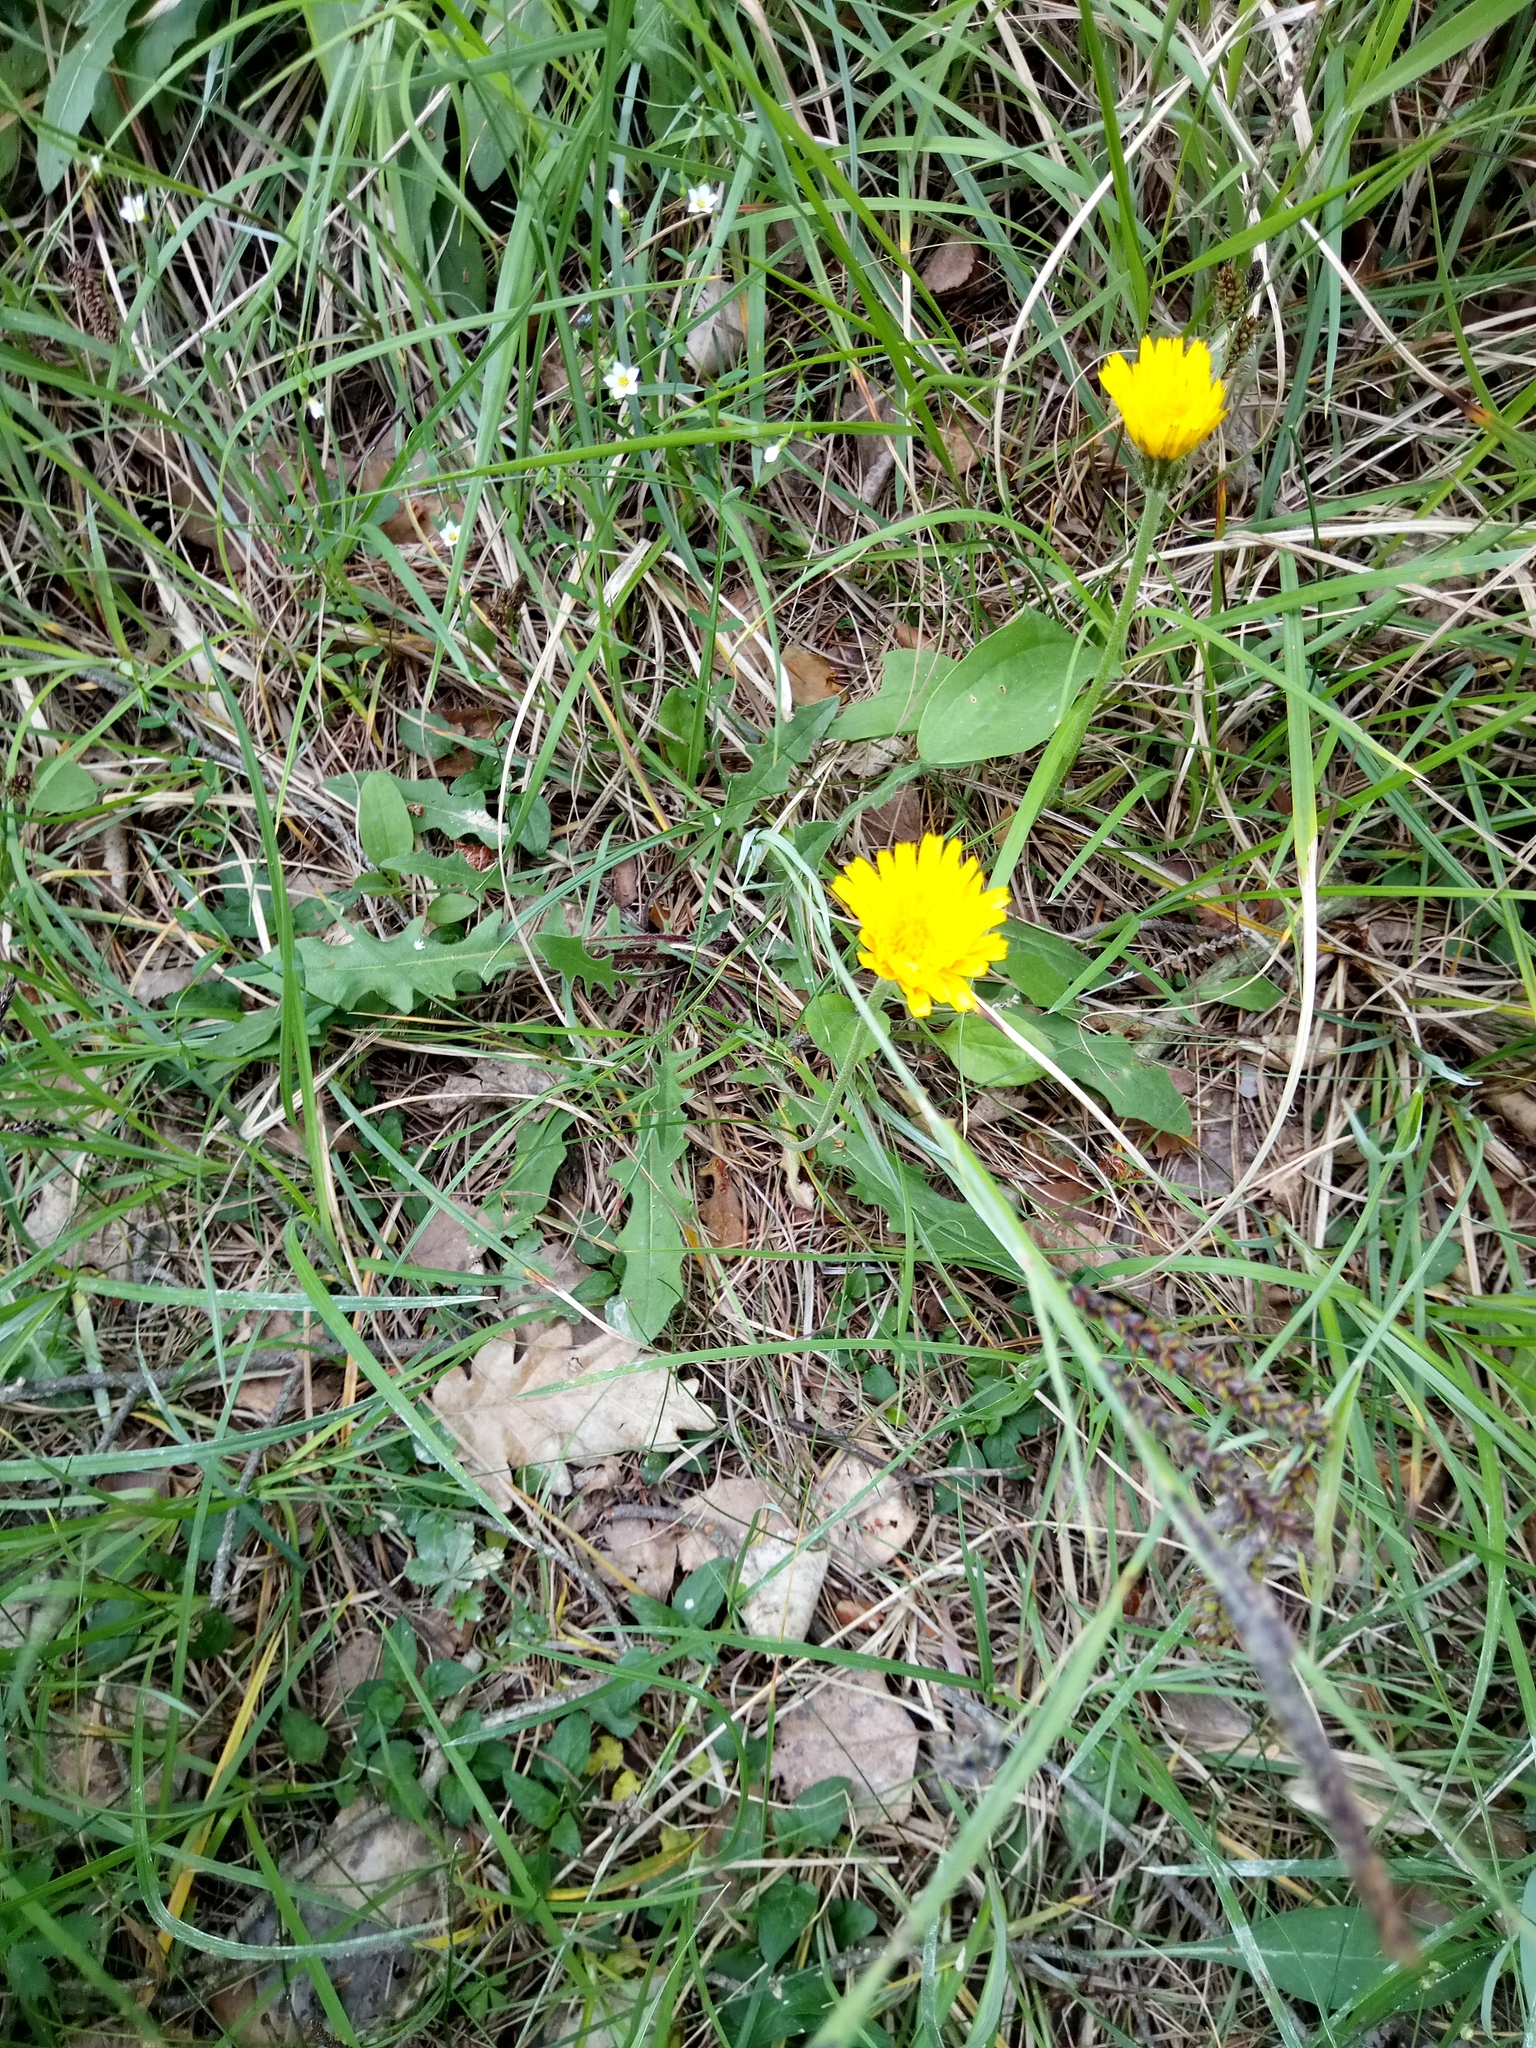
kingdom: Plantae
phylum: Tracheophyta
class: Magnoliopsida
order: Asterales
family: Asteraceae
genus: Leontodon
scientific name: Leontodon hispidus
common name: Rough hawkbit
